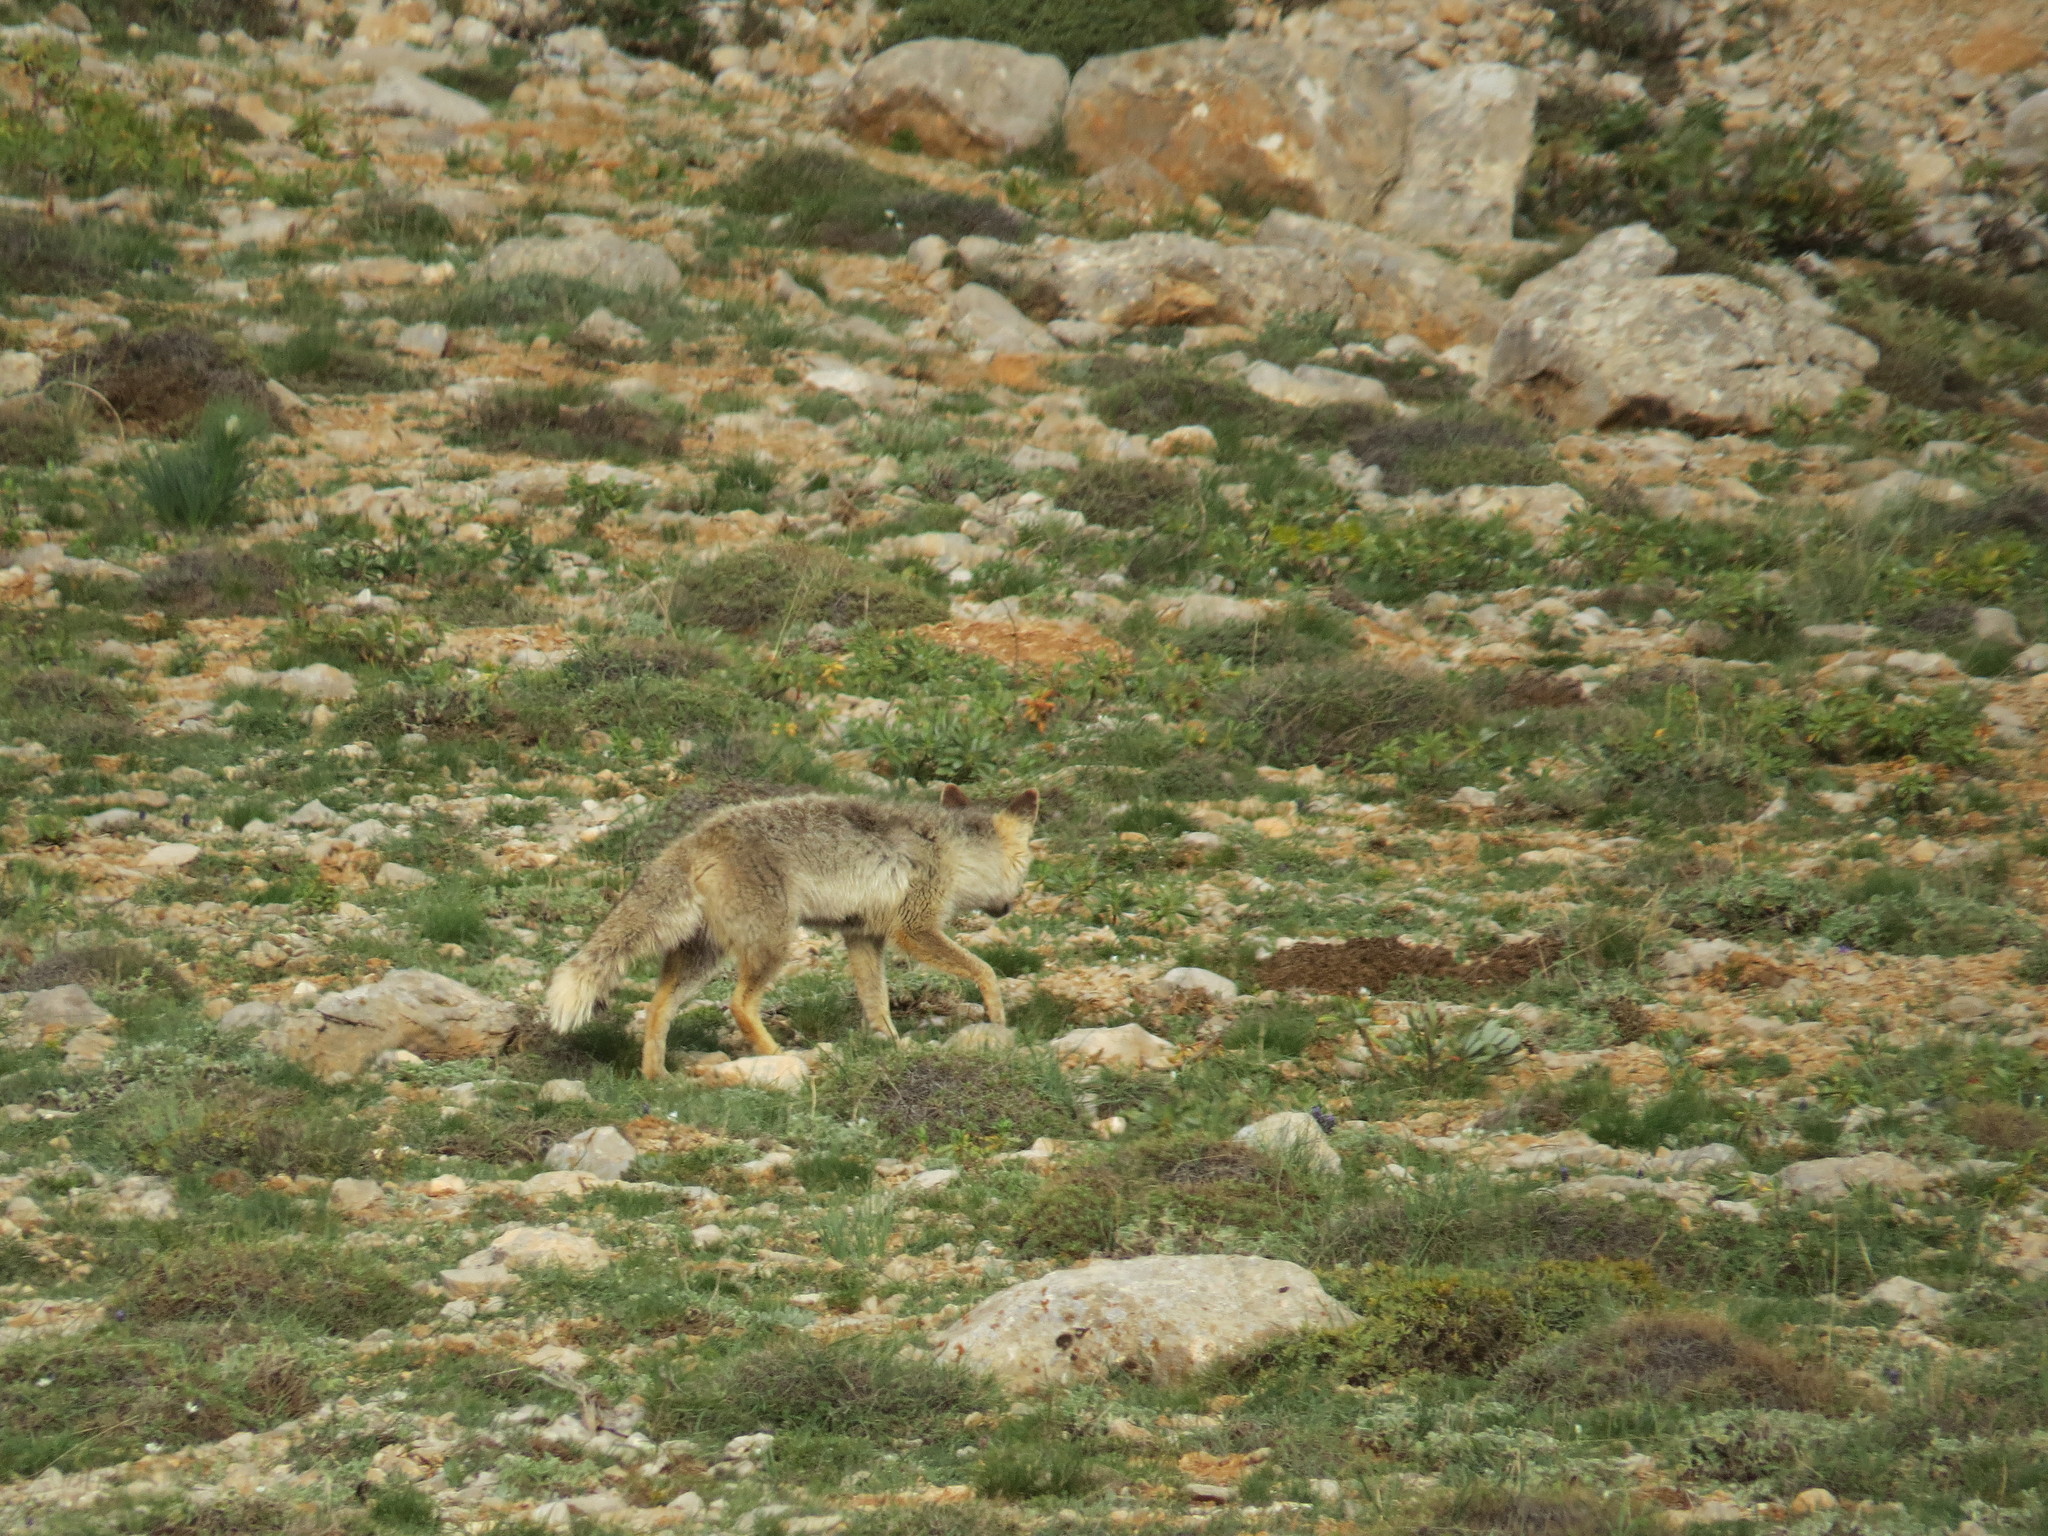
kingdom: Animalia
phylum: Chordata
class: Mammalia
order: Carnivora
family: Canidae
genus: Vulpes
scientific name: Vulpes vulpes
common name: Red fox
